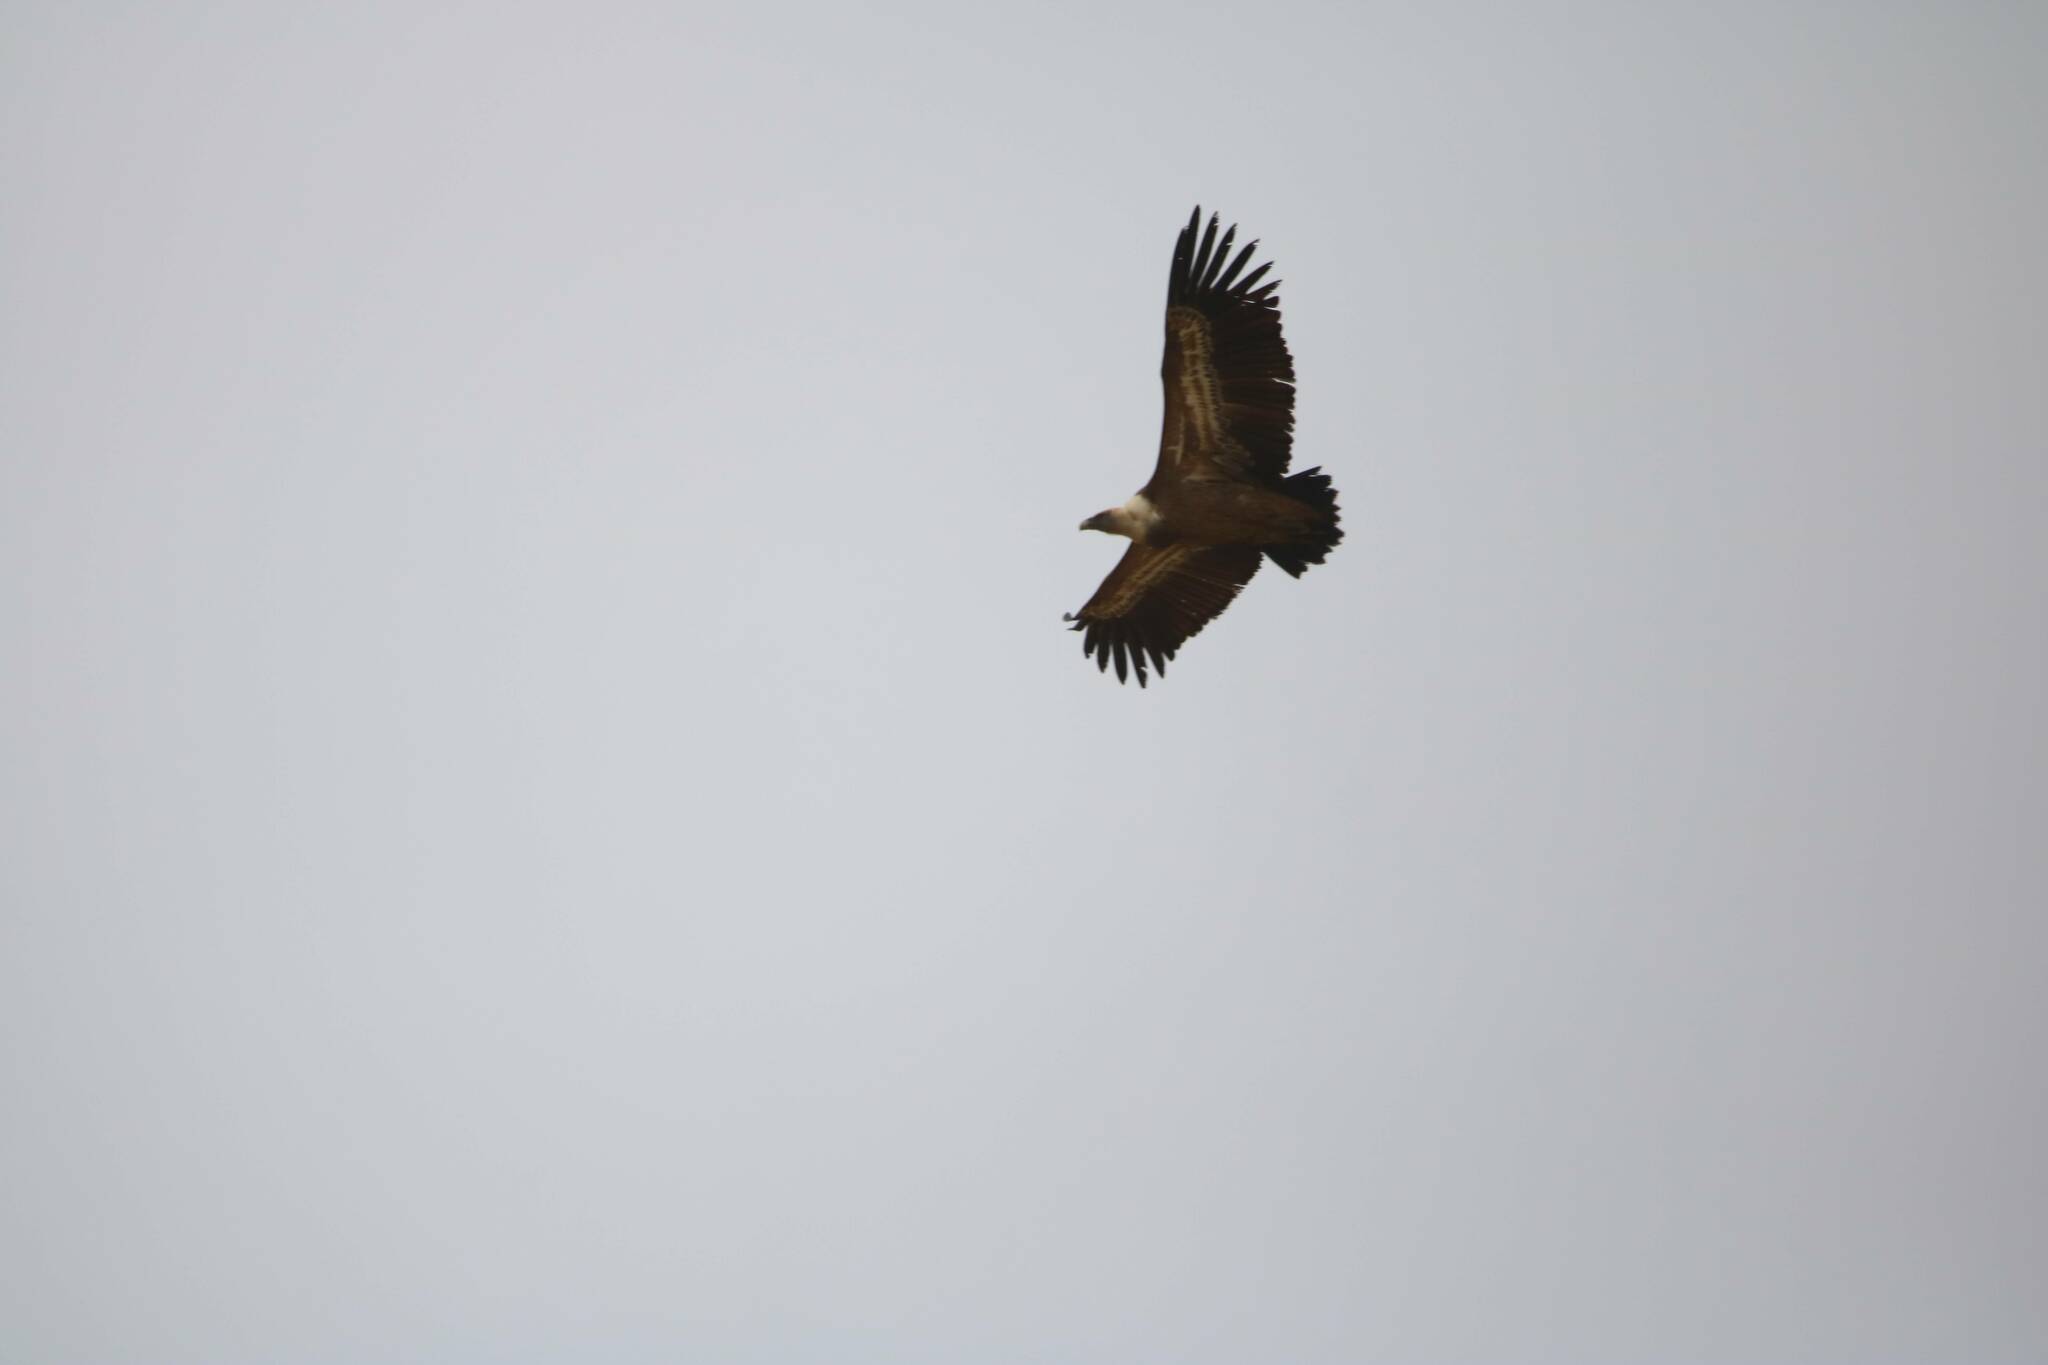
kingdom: Animalia
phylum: Chordata
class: Aves
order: Accipitriformes
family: Accipitridae
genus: Gyps
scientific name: Gyps fulvus
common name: Griffon vulture
